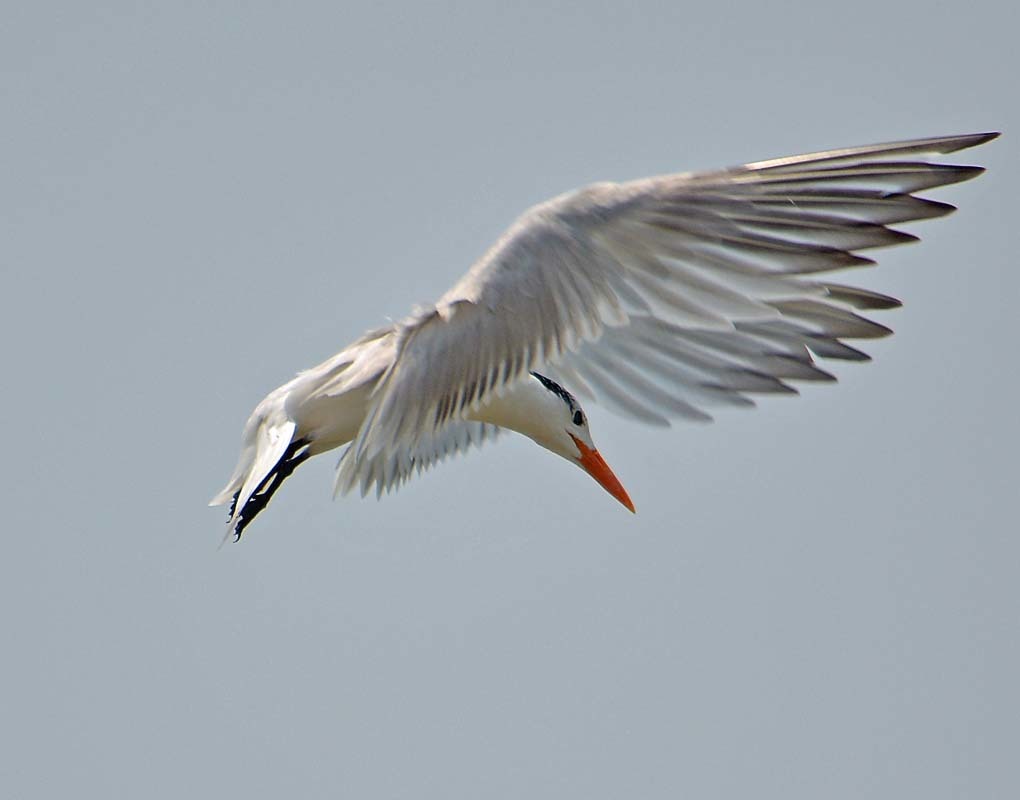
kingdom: Animalia
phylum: Chordata
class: Aves
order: Charadriiformes
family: Laridae
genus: Thalasseus
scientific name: Thalasseus maximus
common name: Royal tern
